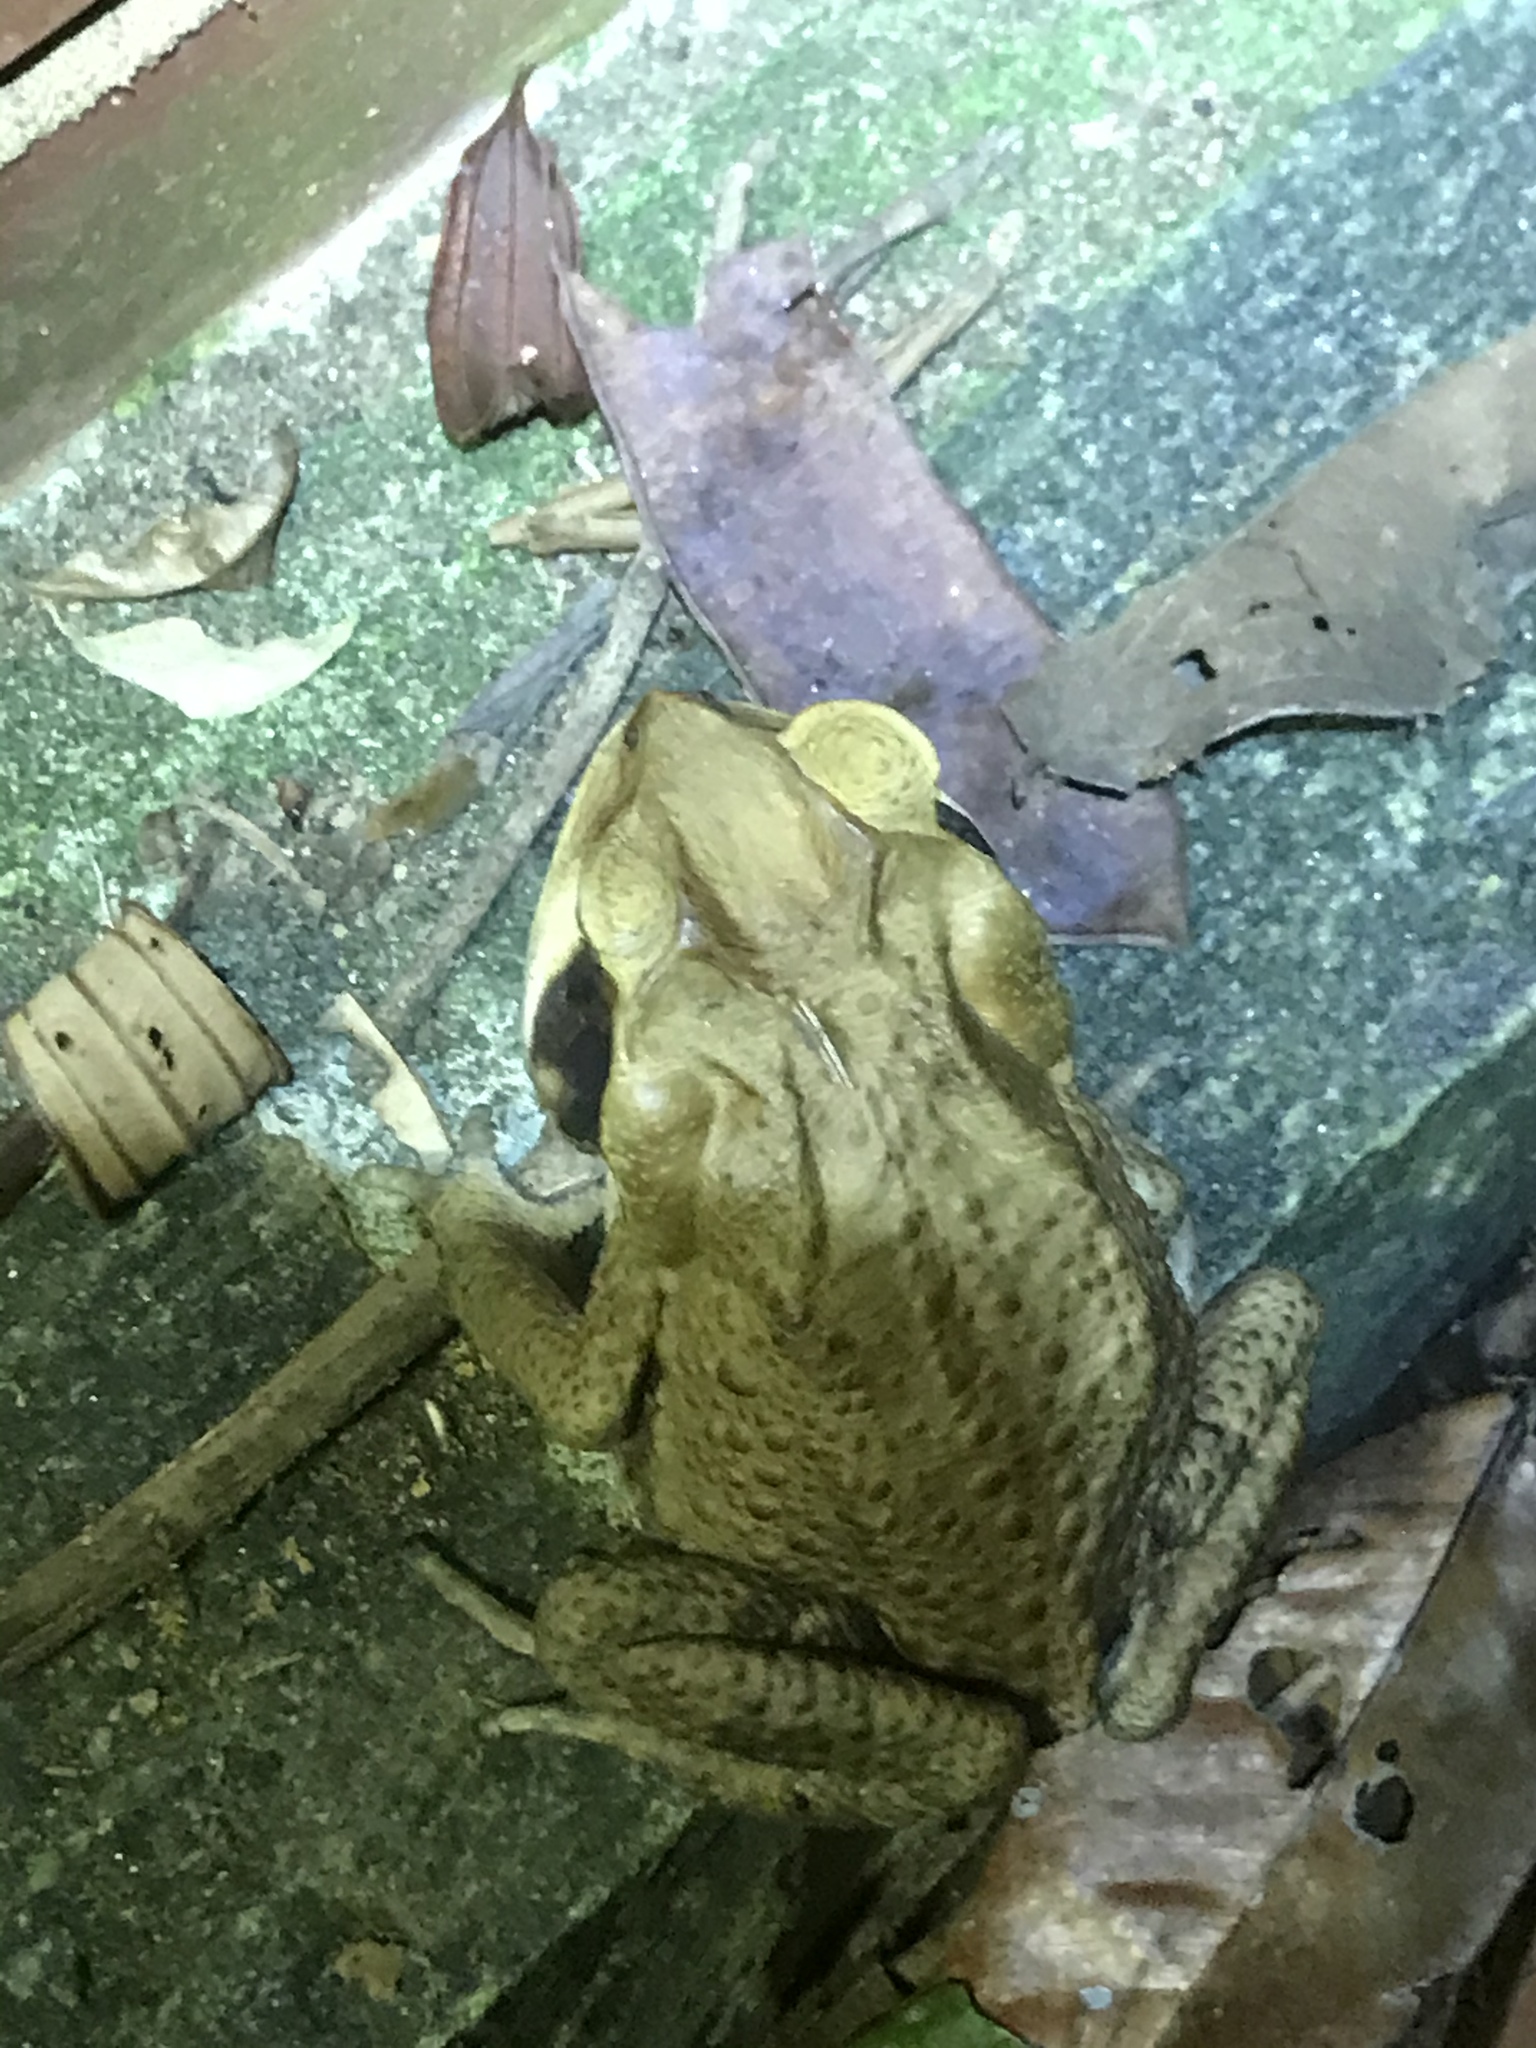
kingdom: Animalia
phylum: Chordata
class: Amphibia
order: Anura
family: Bufonidae
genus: Rhinella
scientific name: Rhinella crucifer
